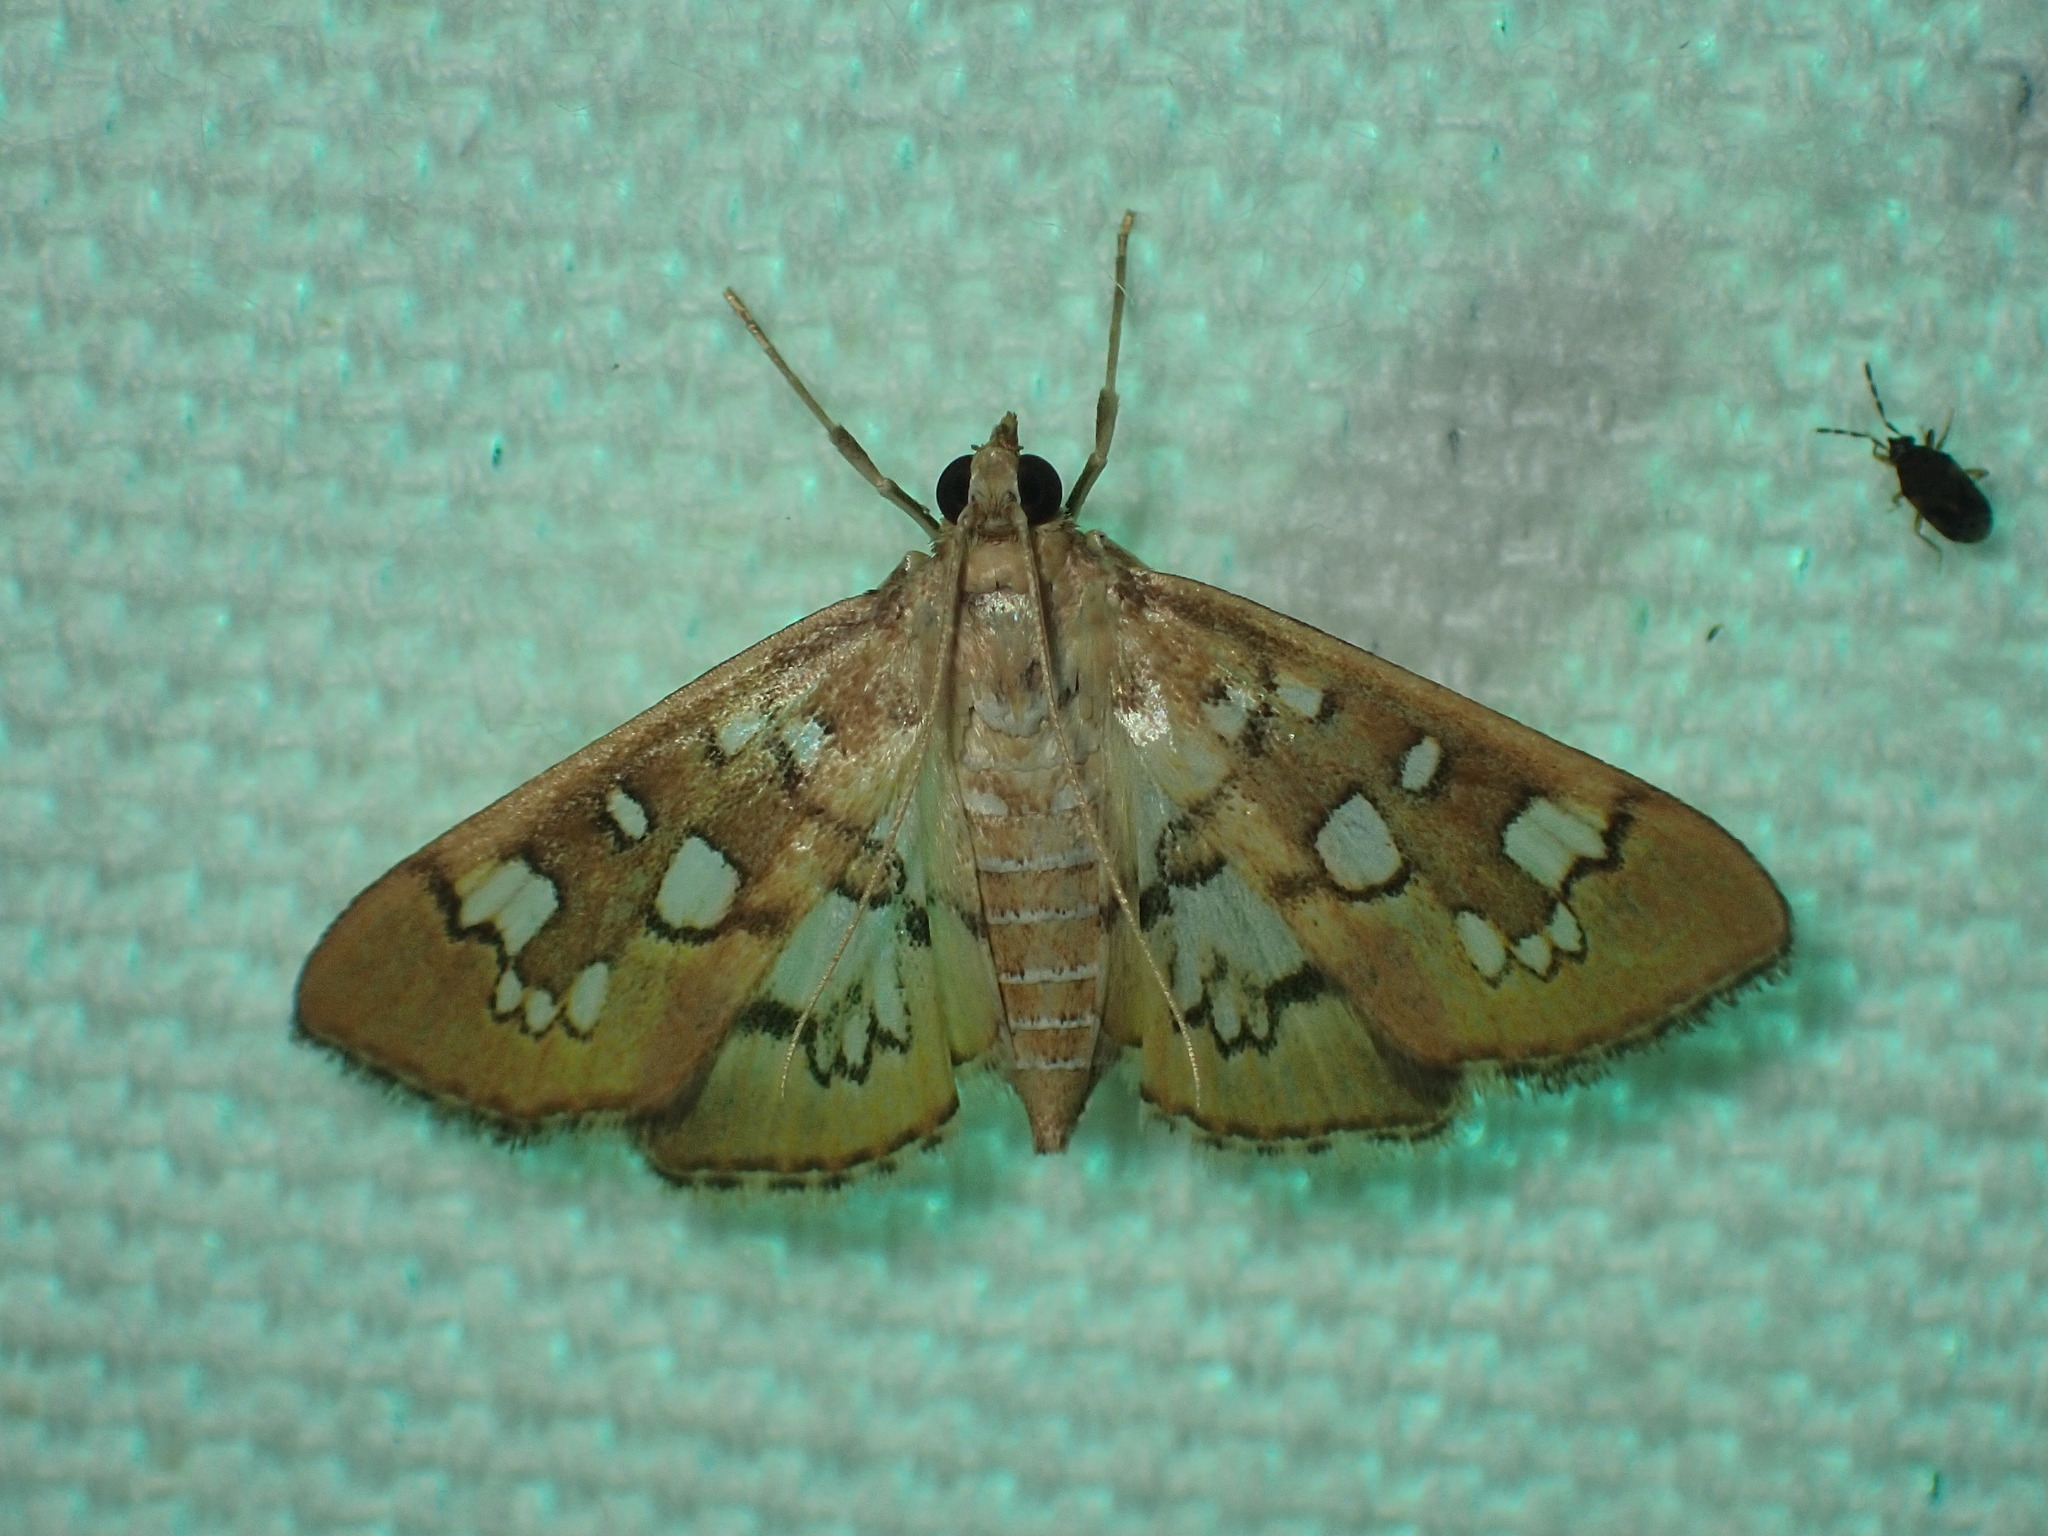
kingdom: Animalia
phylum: Arthropoda
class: Insecta
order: Lepidoptera
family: Crambidae
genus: Samea
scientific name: Samea baccatalis
